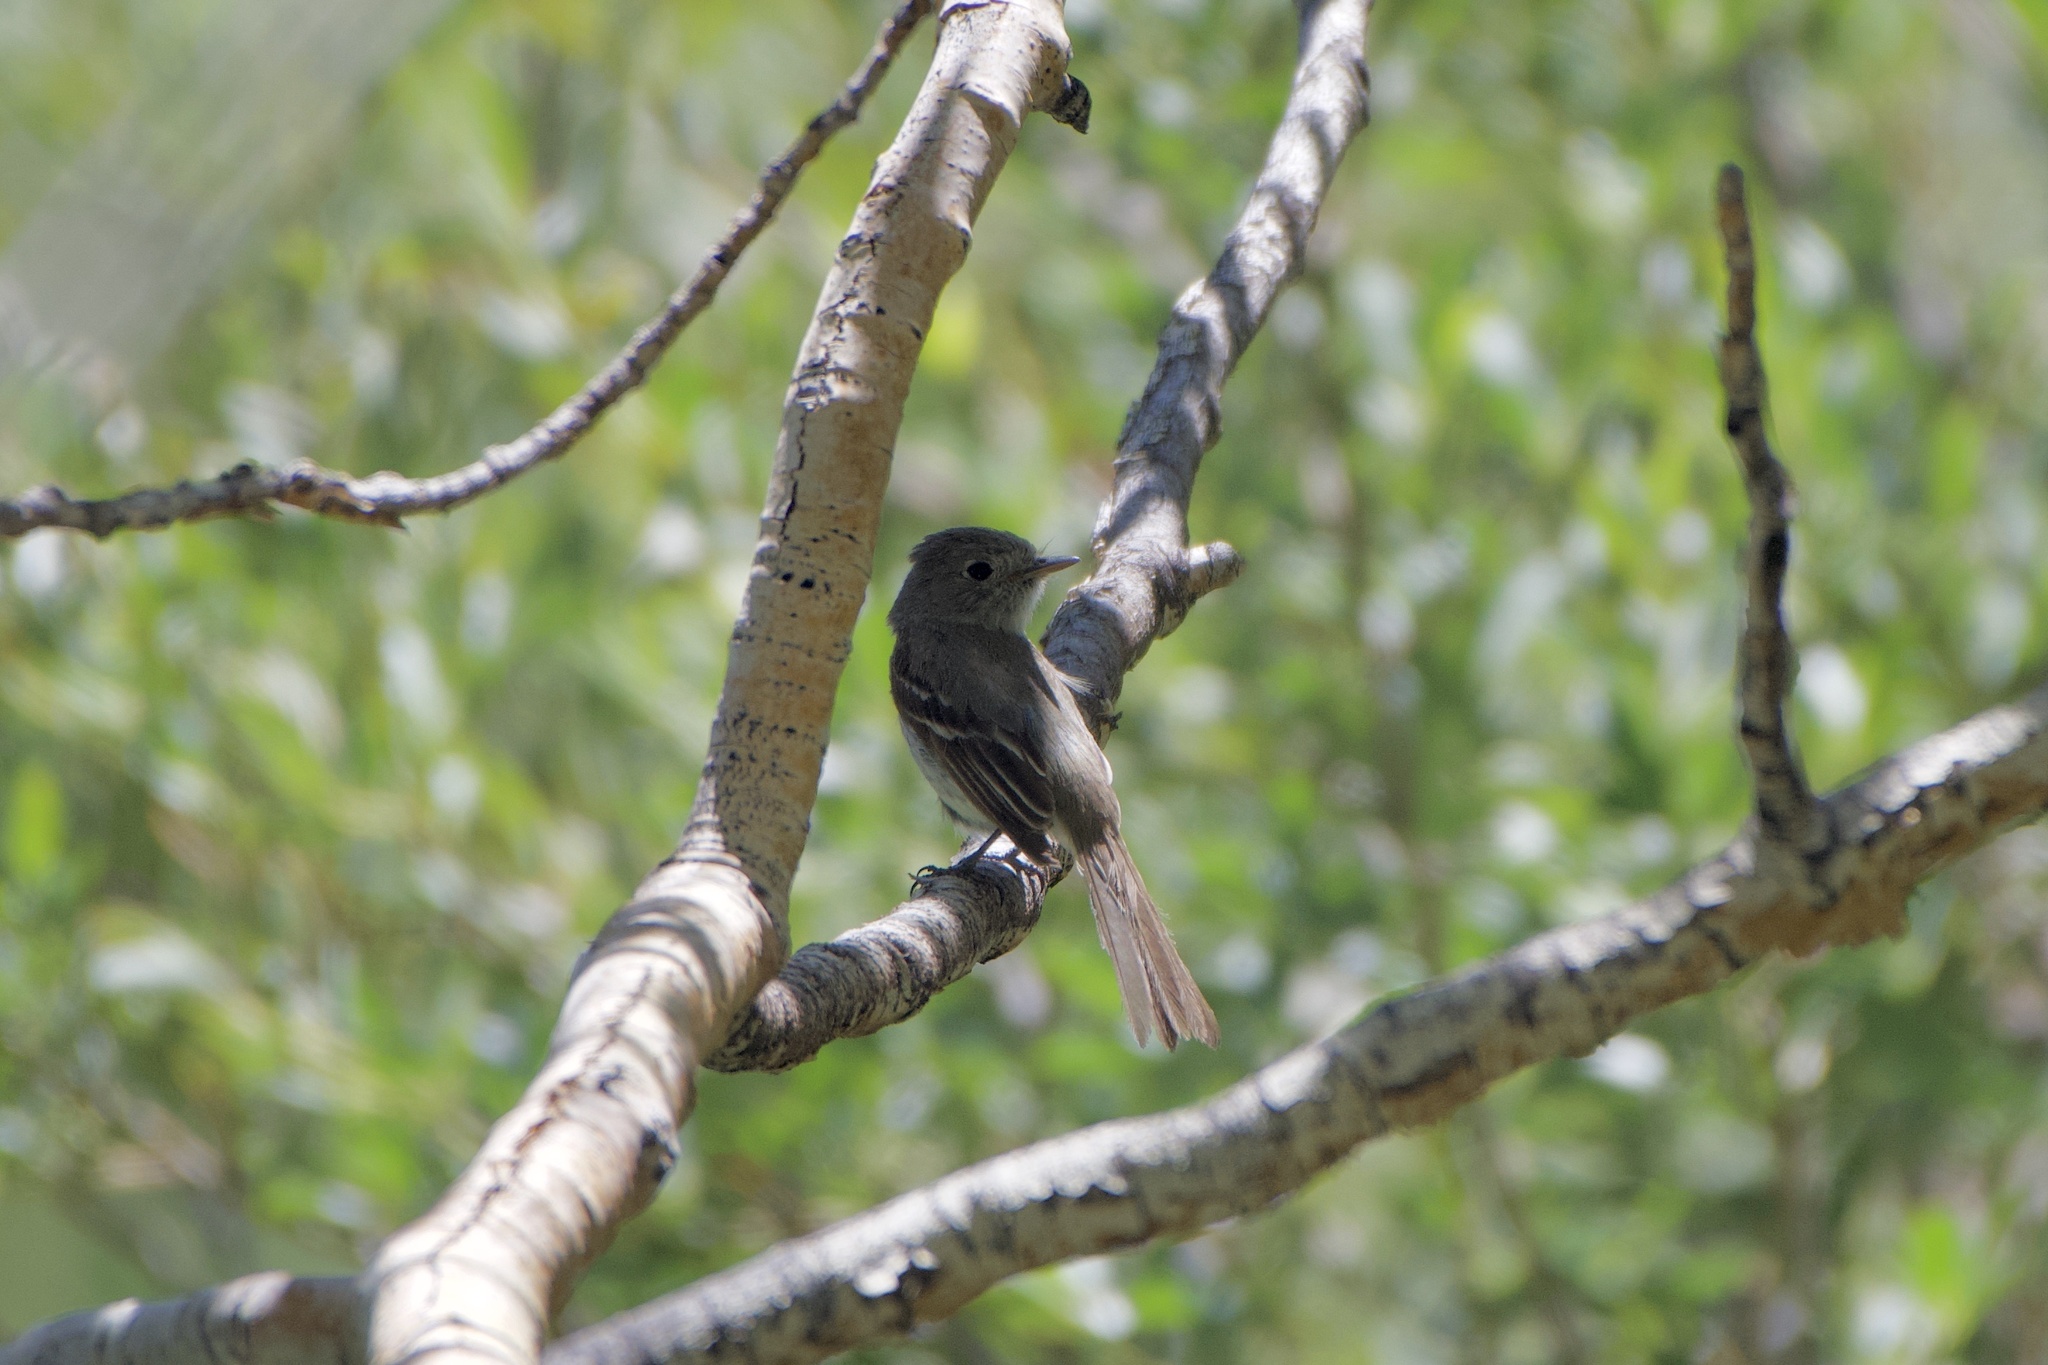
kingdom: Animalia
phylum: Chordata
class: Aves
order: Passeriformes
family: Tyrannidae
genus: Empidonax
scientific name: Empidonax oberholseri
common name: Dusky flycatcher
